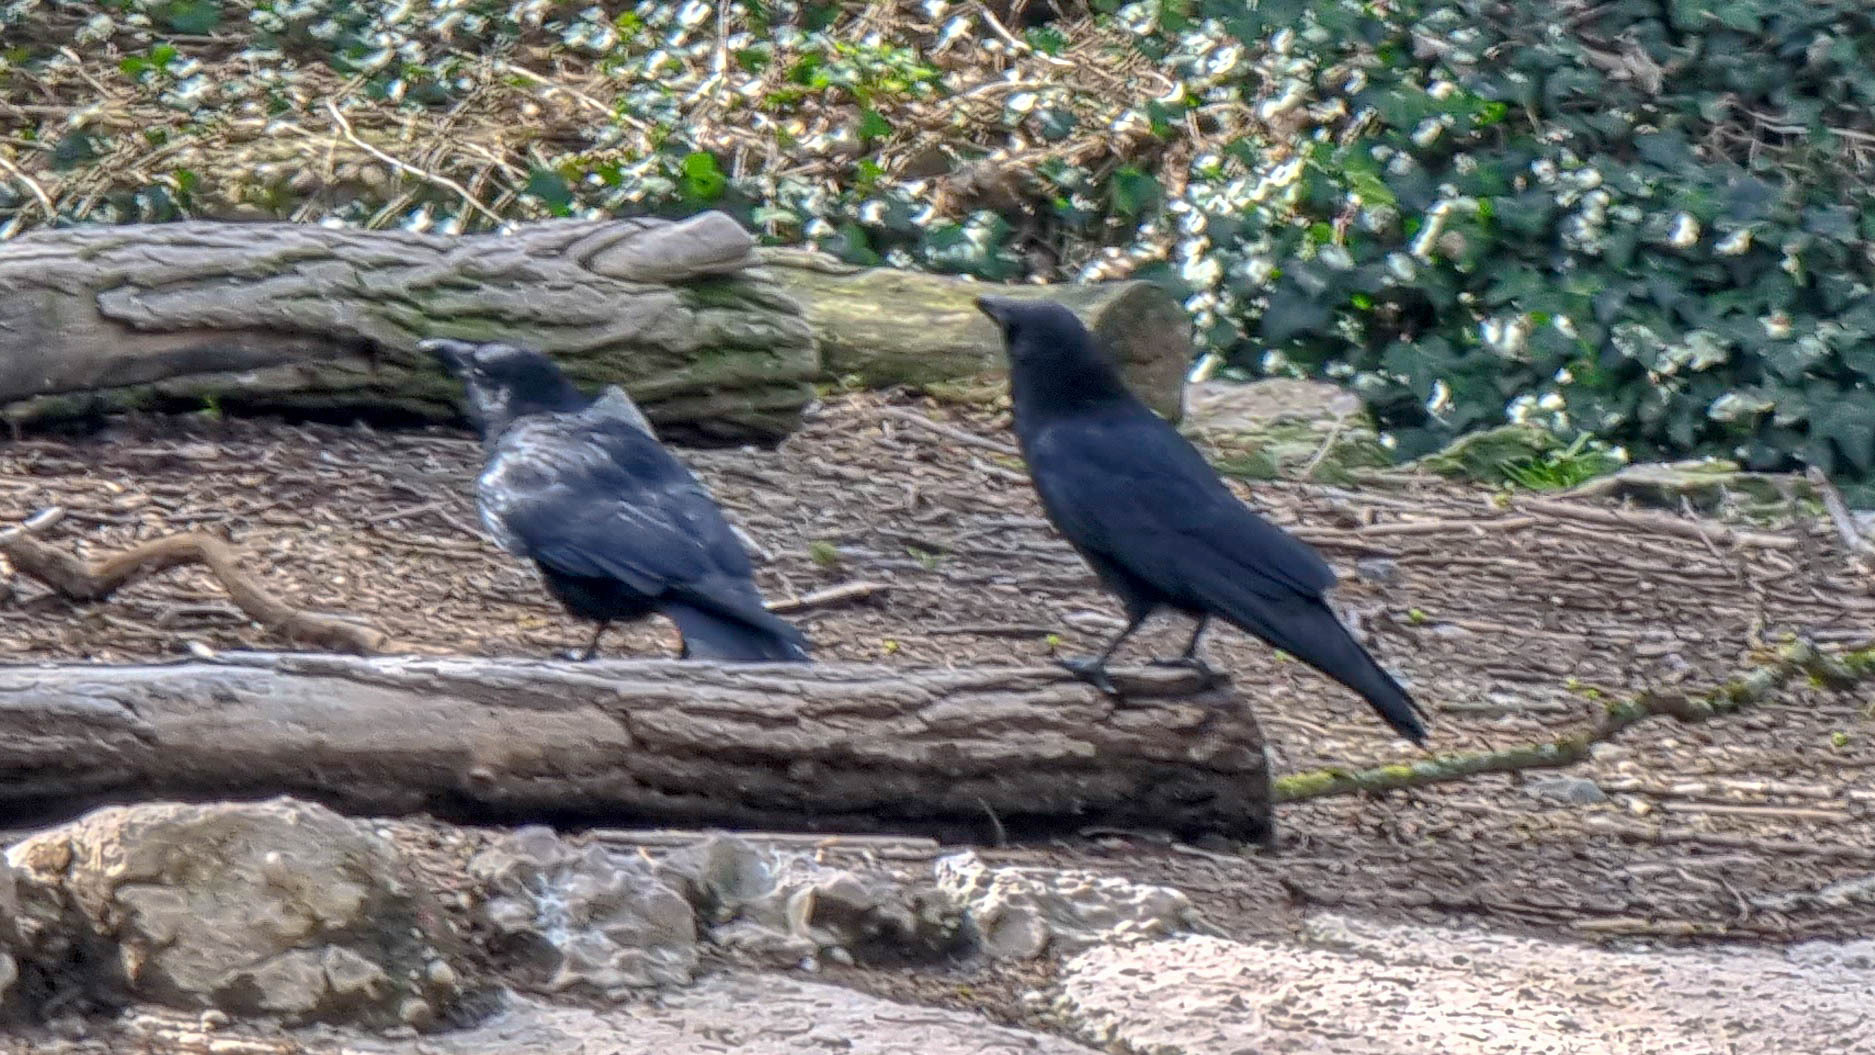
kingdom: Animalia
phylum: Chordata
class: Aves
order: Passeriformes
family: Corvidae
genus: Corvus
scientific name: Corvus corone
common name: Carrion crow
